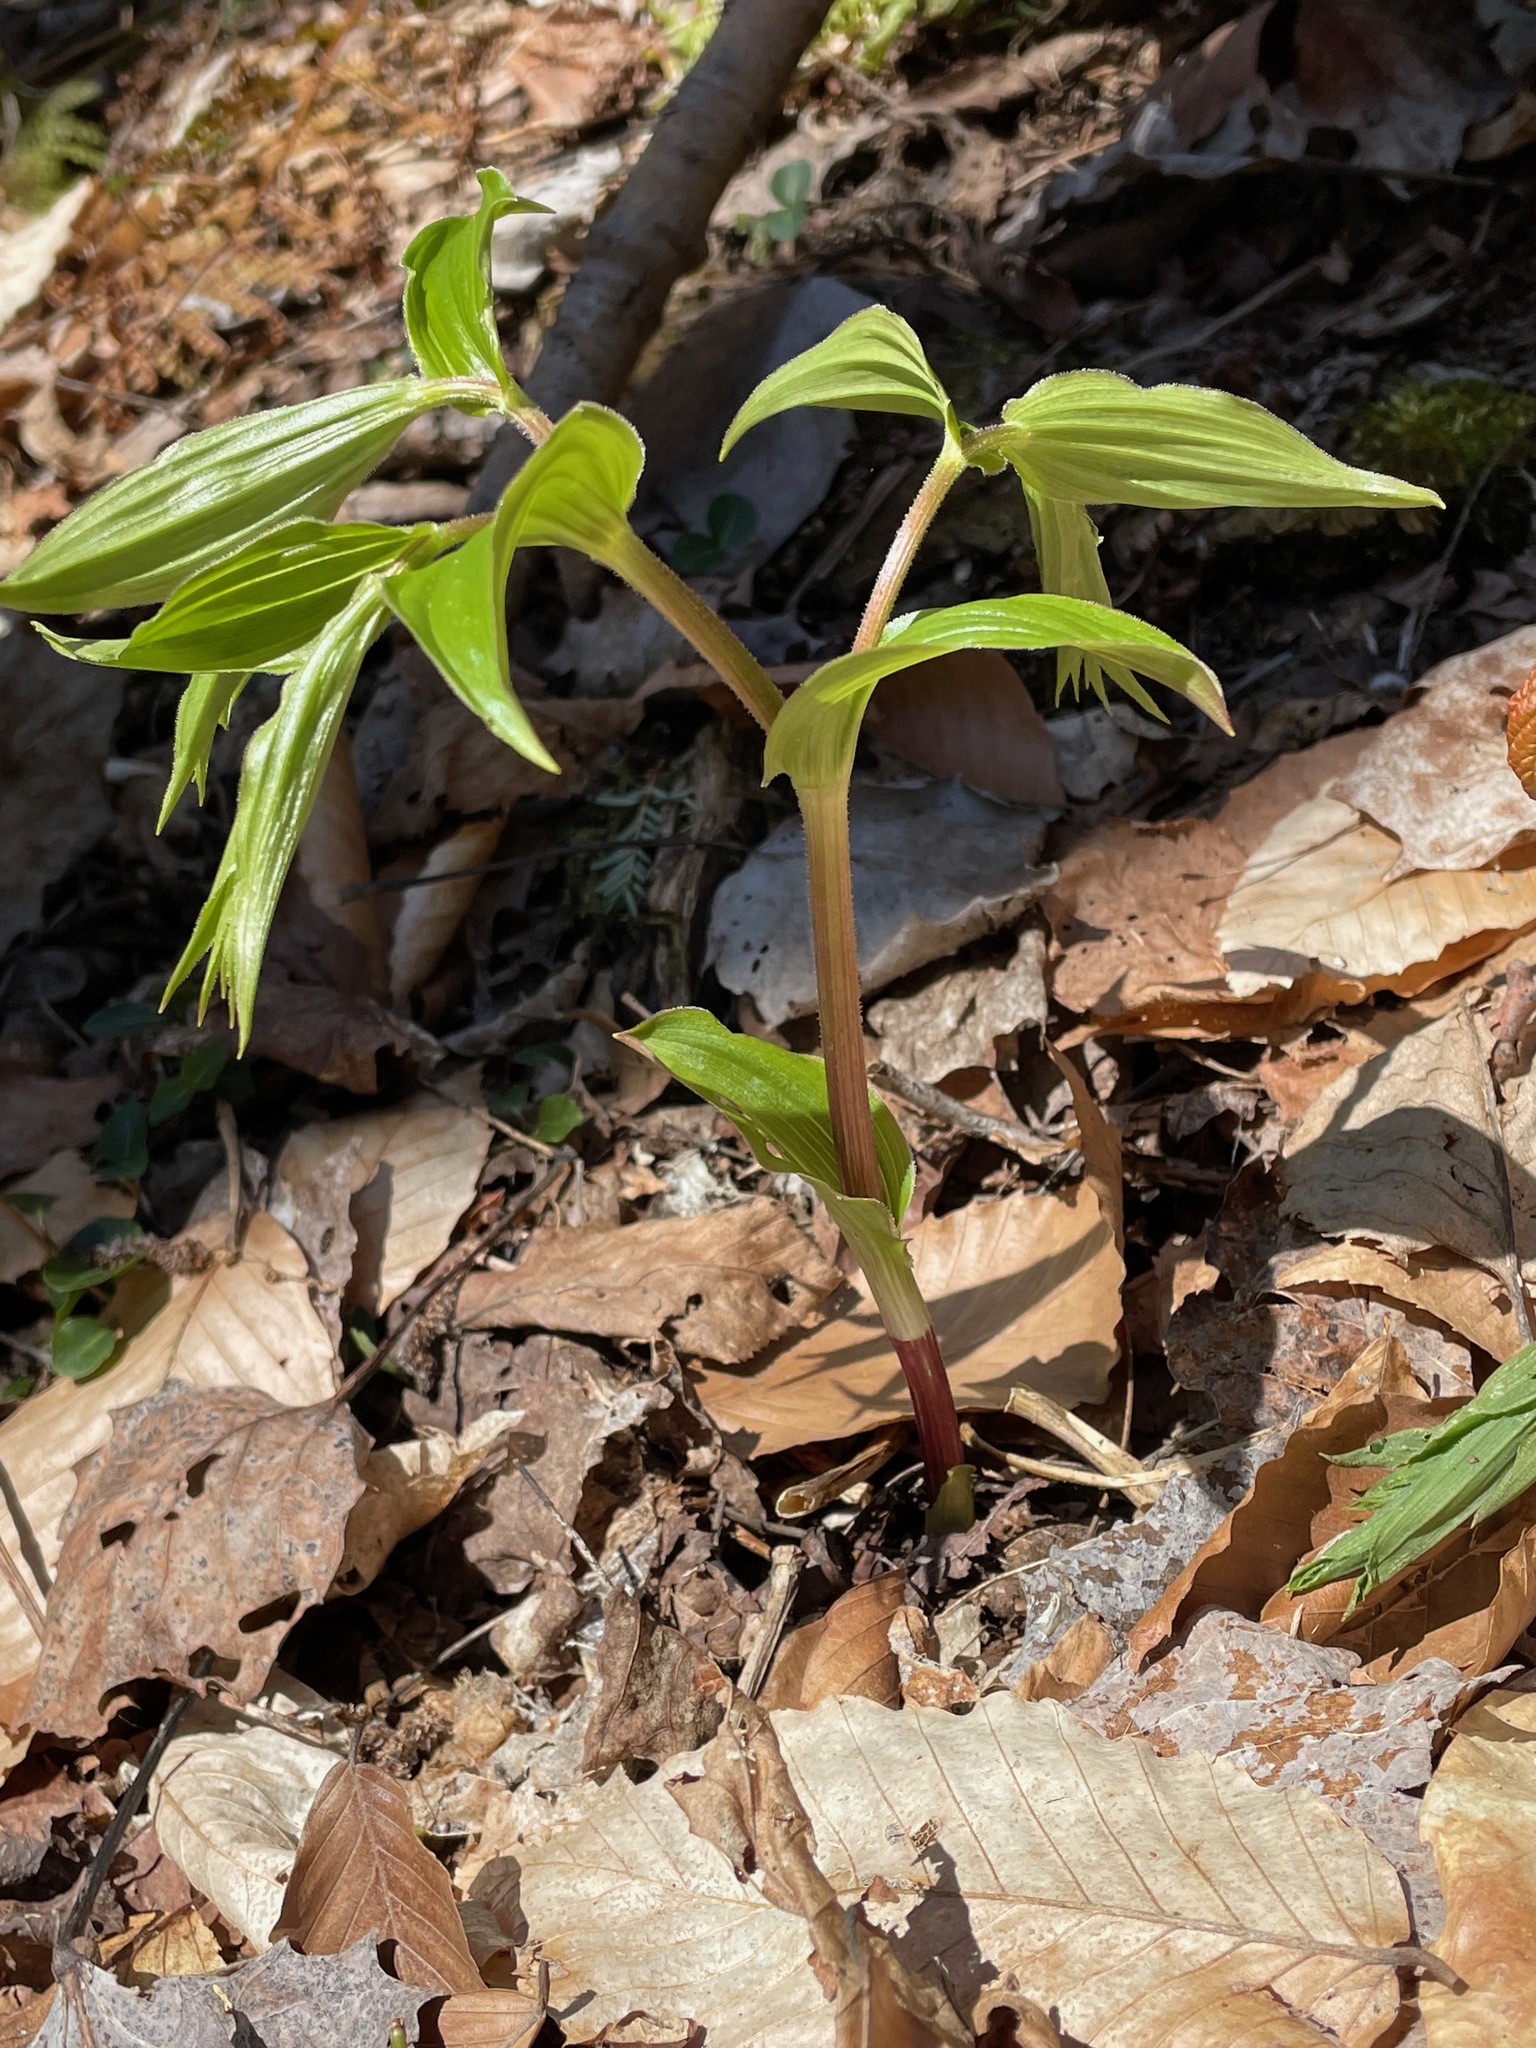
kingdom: Plantae
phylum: Tracheophyta
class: Liliopsida
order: Liliales
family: Liliaceae
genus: Streptopus
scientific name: Streptopus lanceolatus
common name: Rose mandarin
